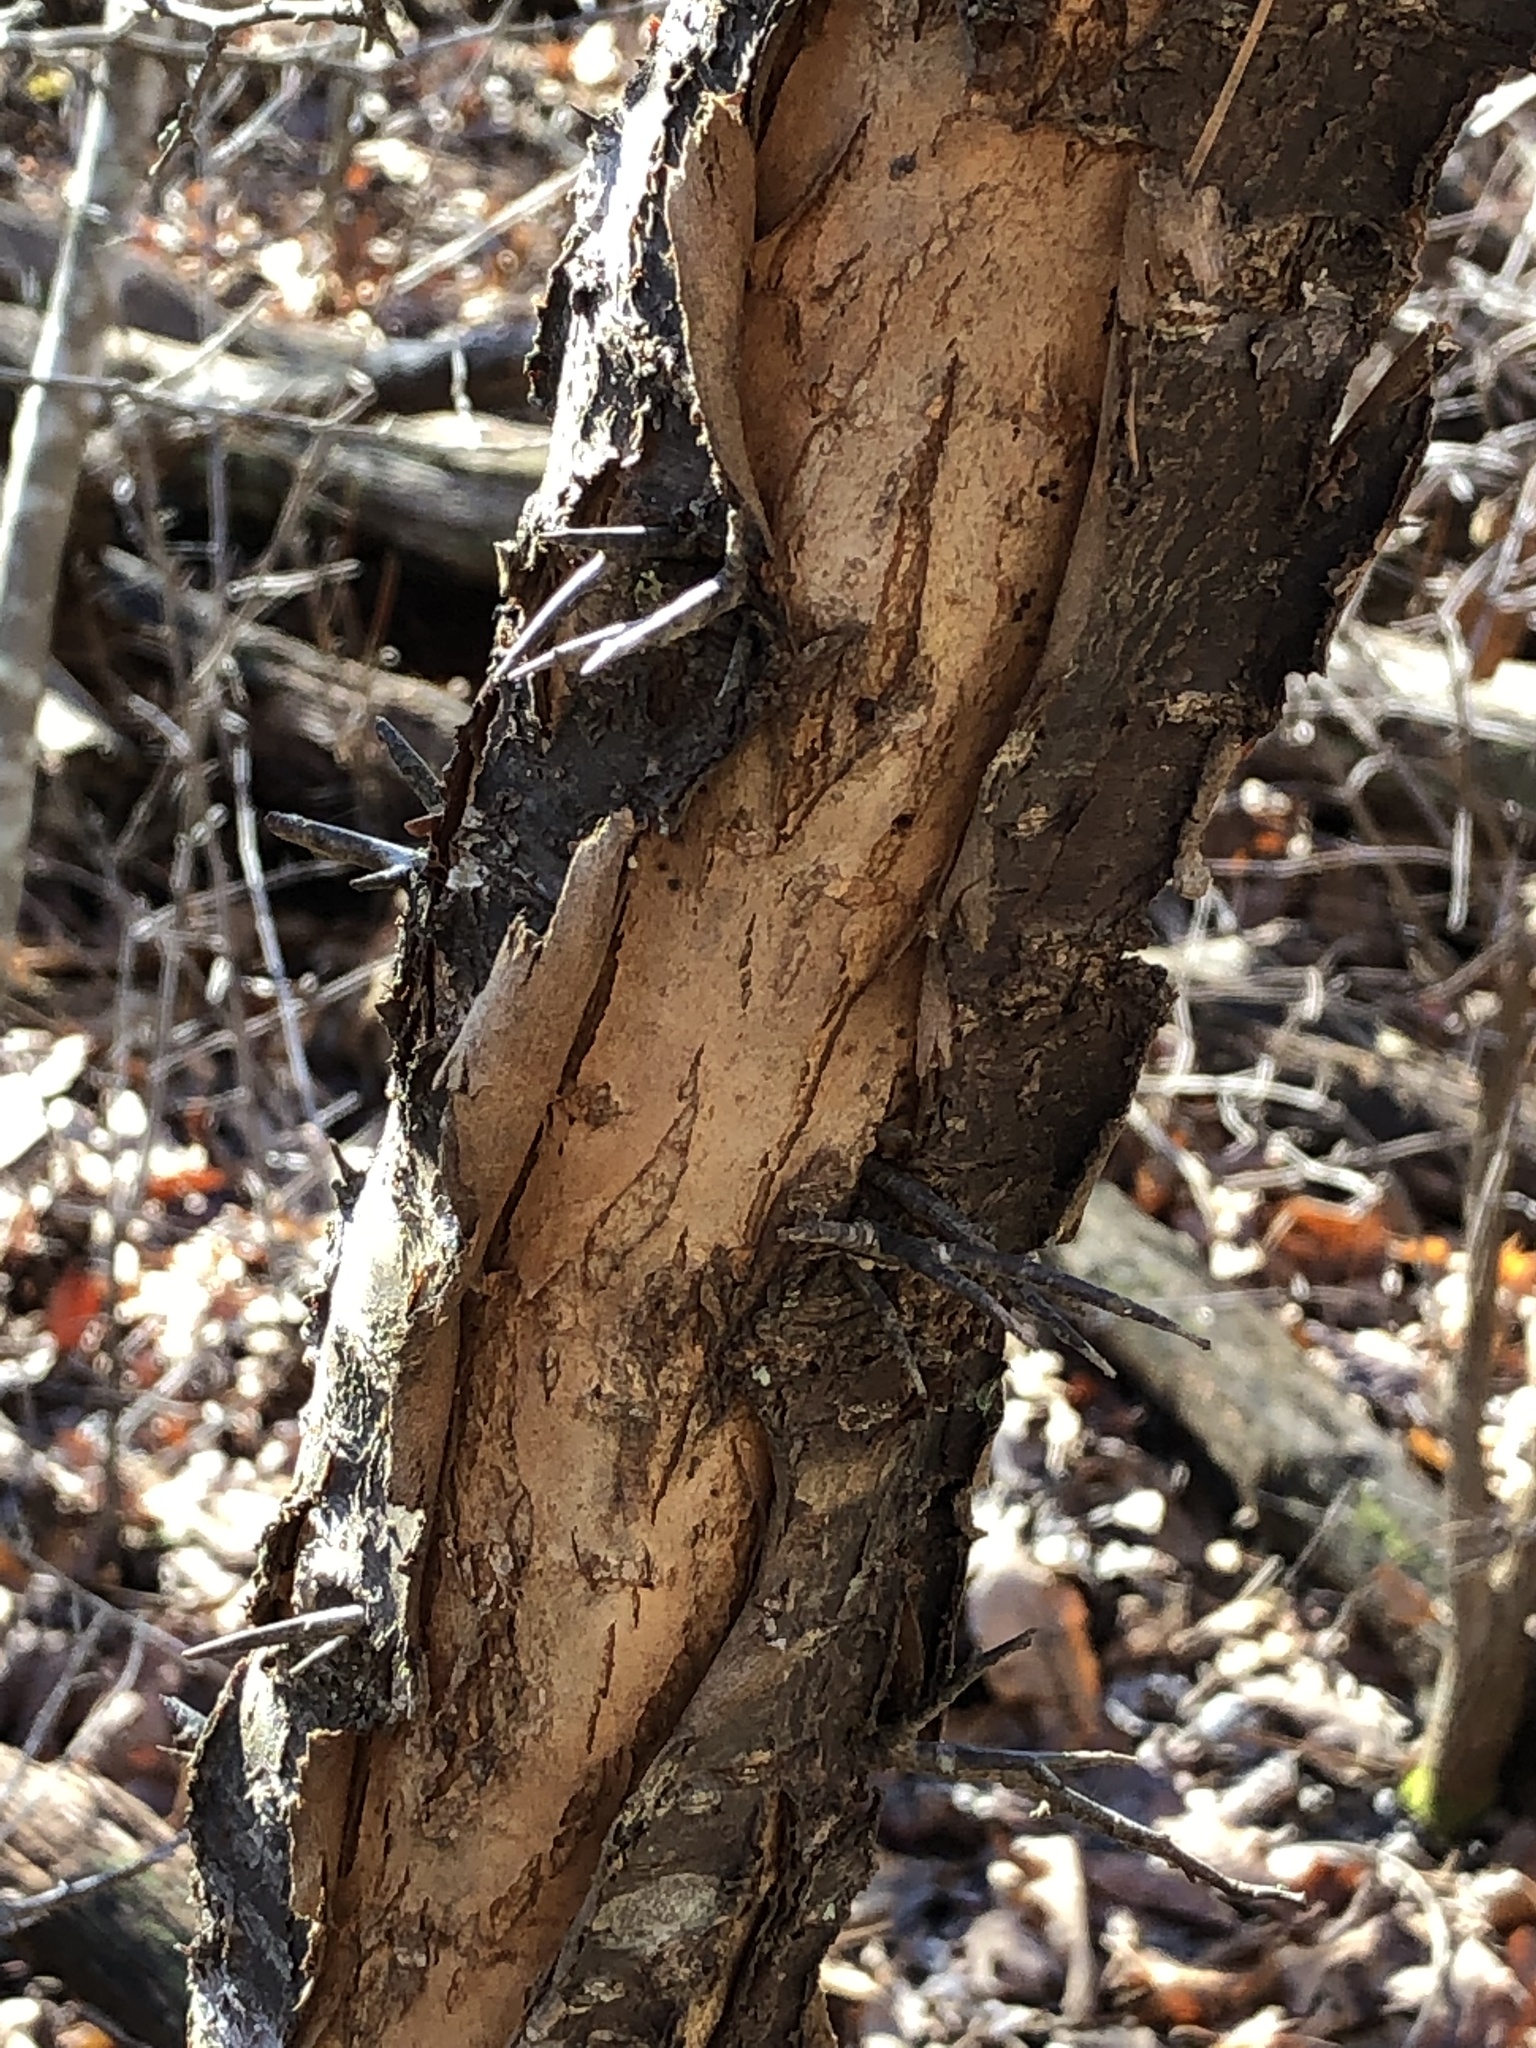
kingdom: Plantae
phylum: Tracheophyta
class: Magnoliopsida
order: Rosales
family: Rosaceae
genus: Prunus
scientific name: Prunus americana
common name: American plum
